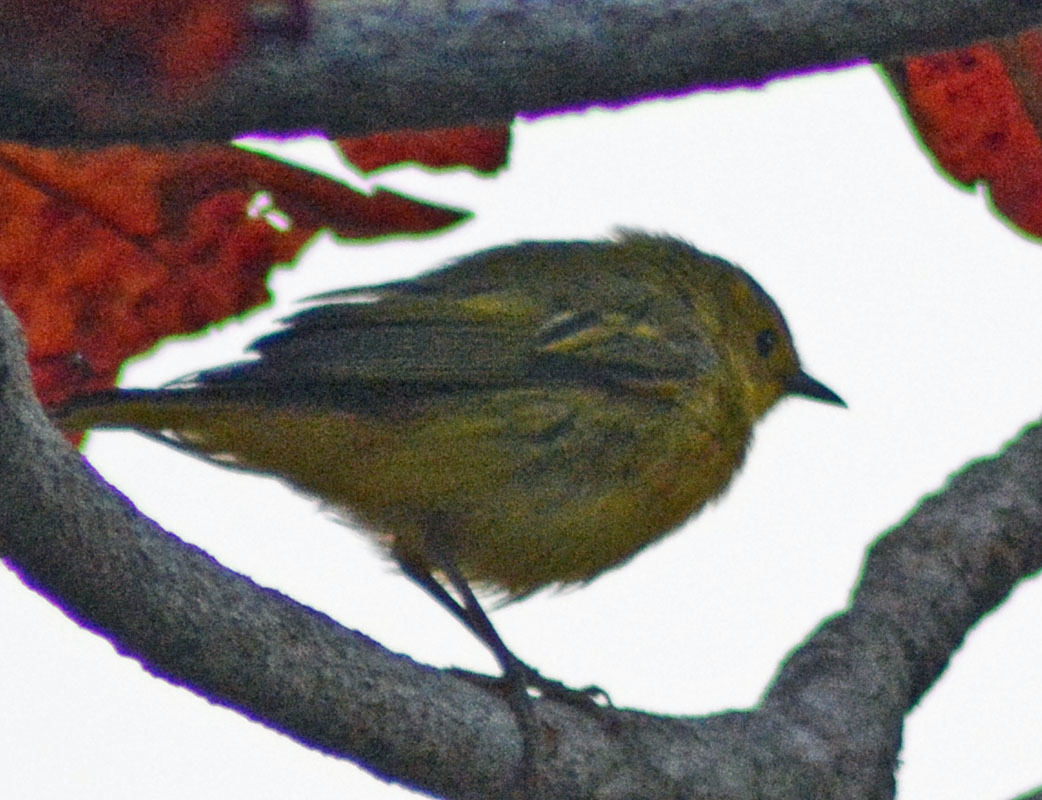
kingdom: Animalia
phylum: Chordata
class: Aves
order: Passeriformes
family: Parulidae
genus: Setophaga
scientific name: Setophaga petechia
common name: Yellow warbler
